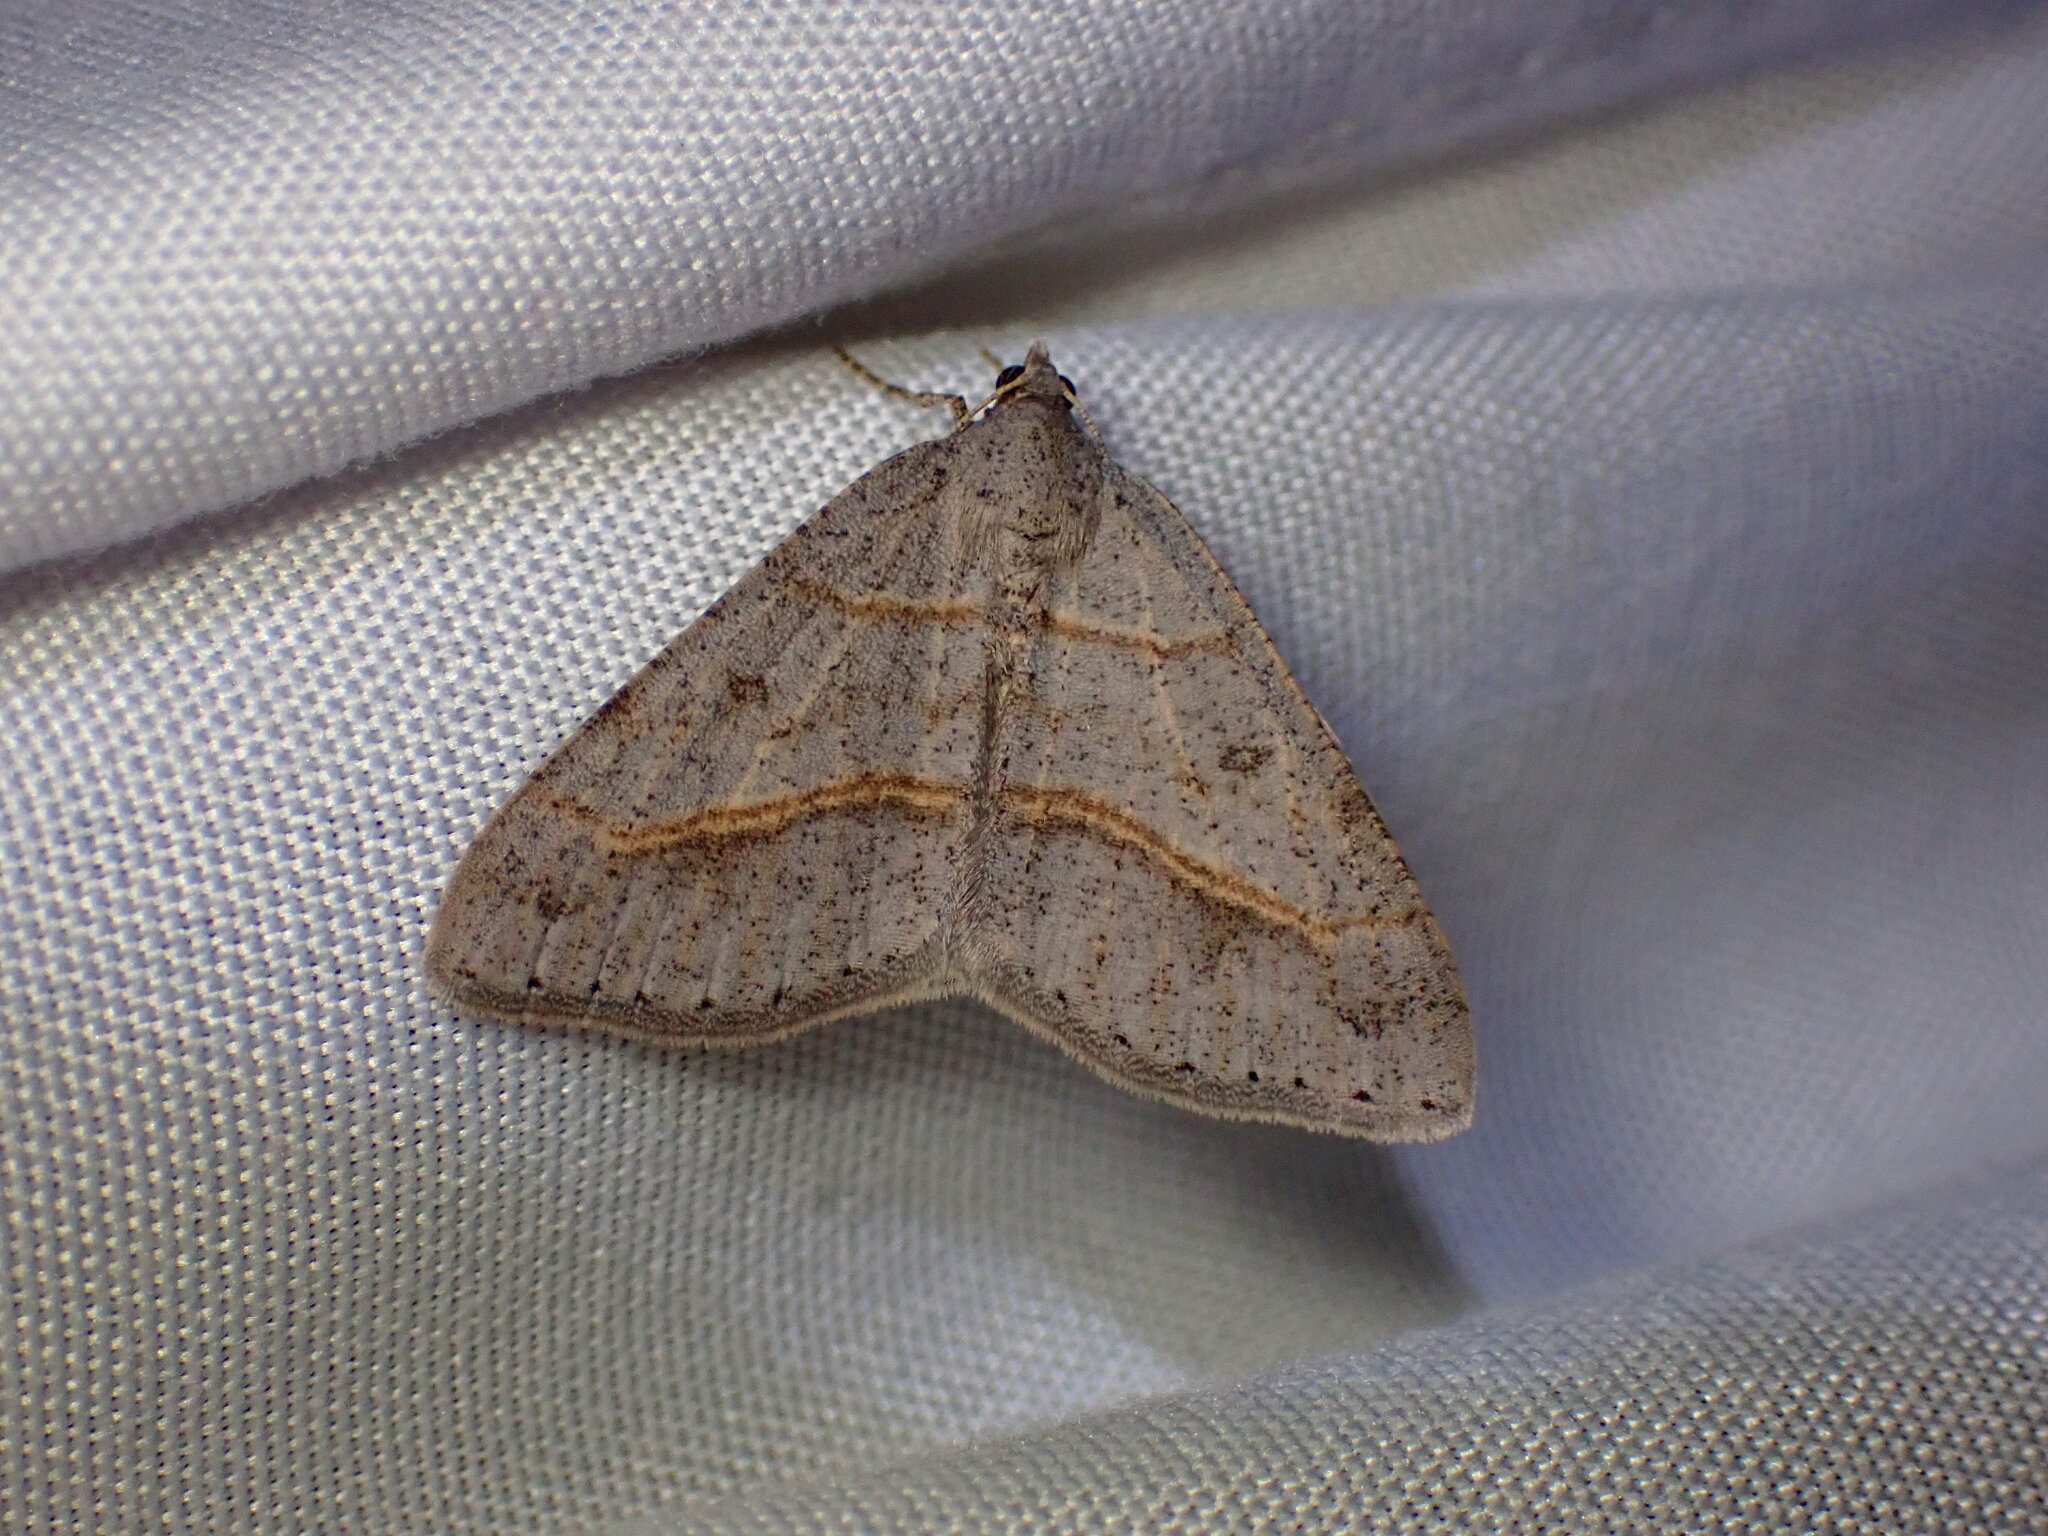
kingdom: Animalia
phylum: Arthropoda
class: Insecta
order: Lepidoptera
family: Geometridae
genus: Digrammia
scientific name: Digrammia neptaria
